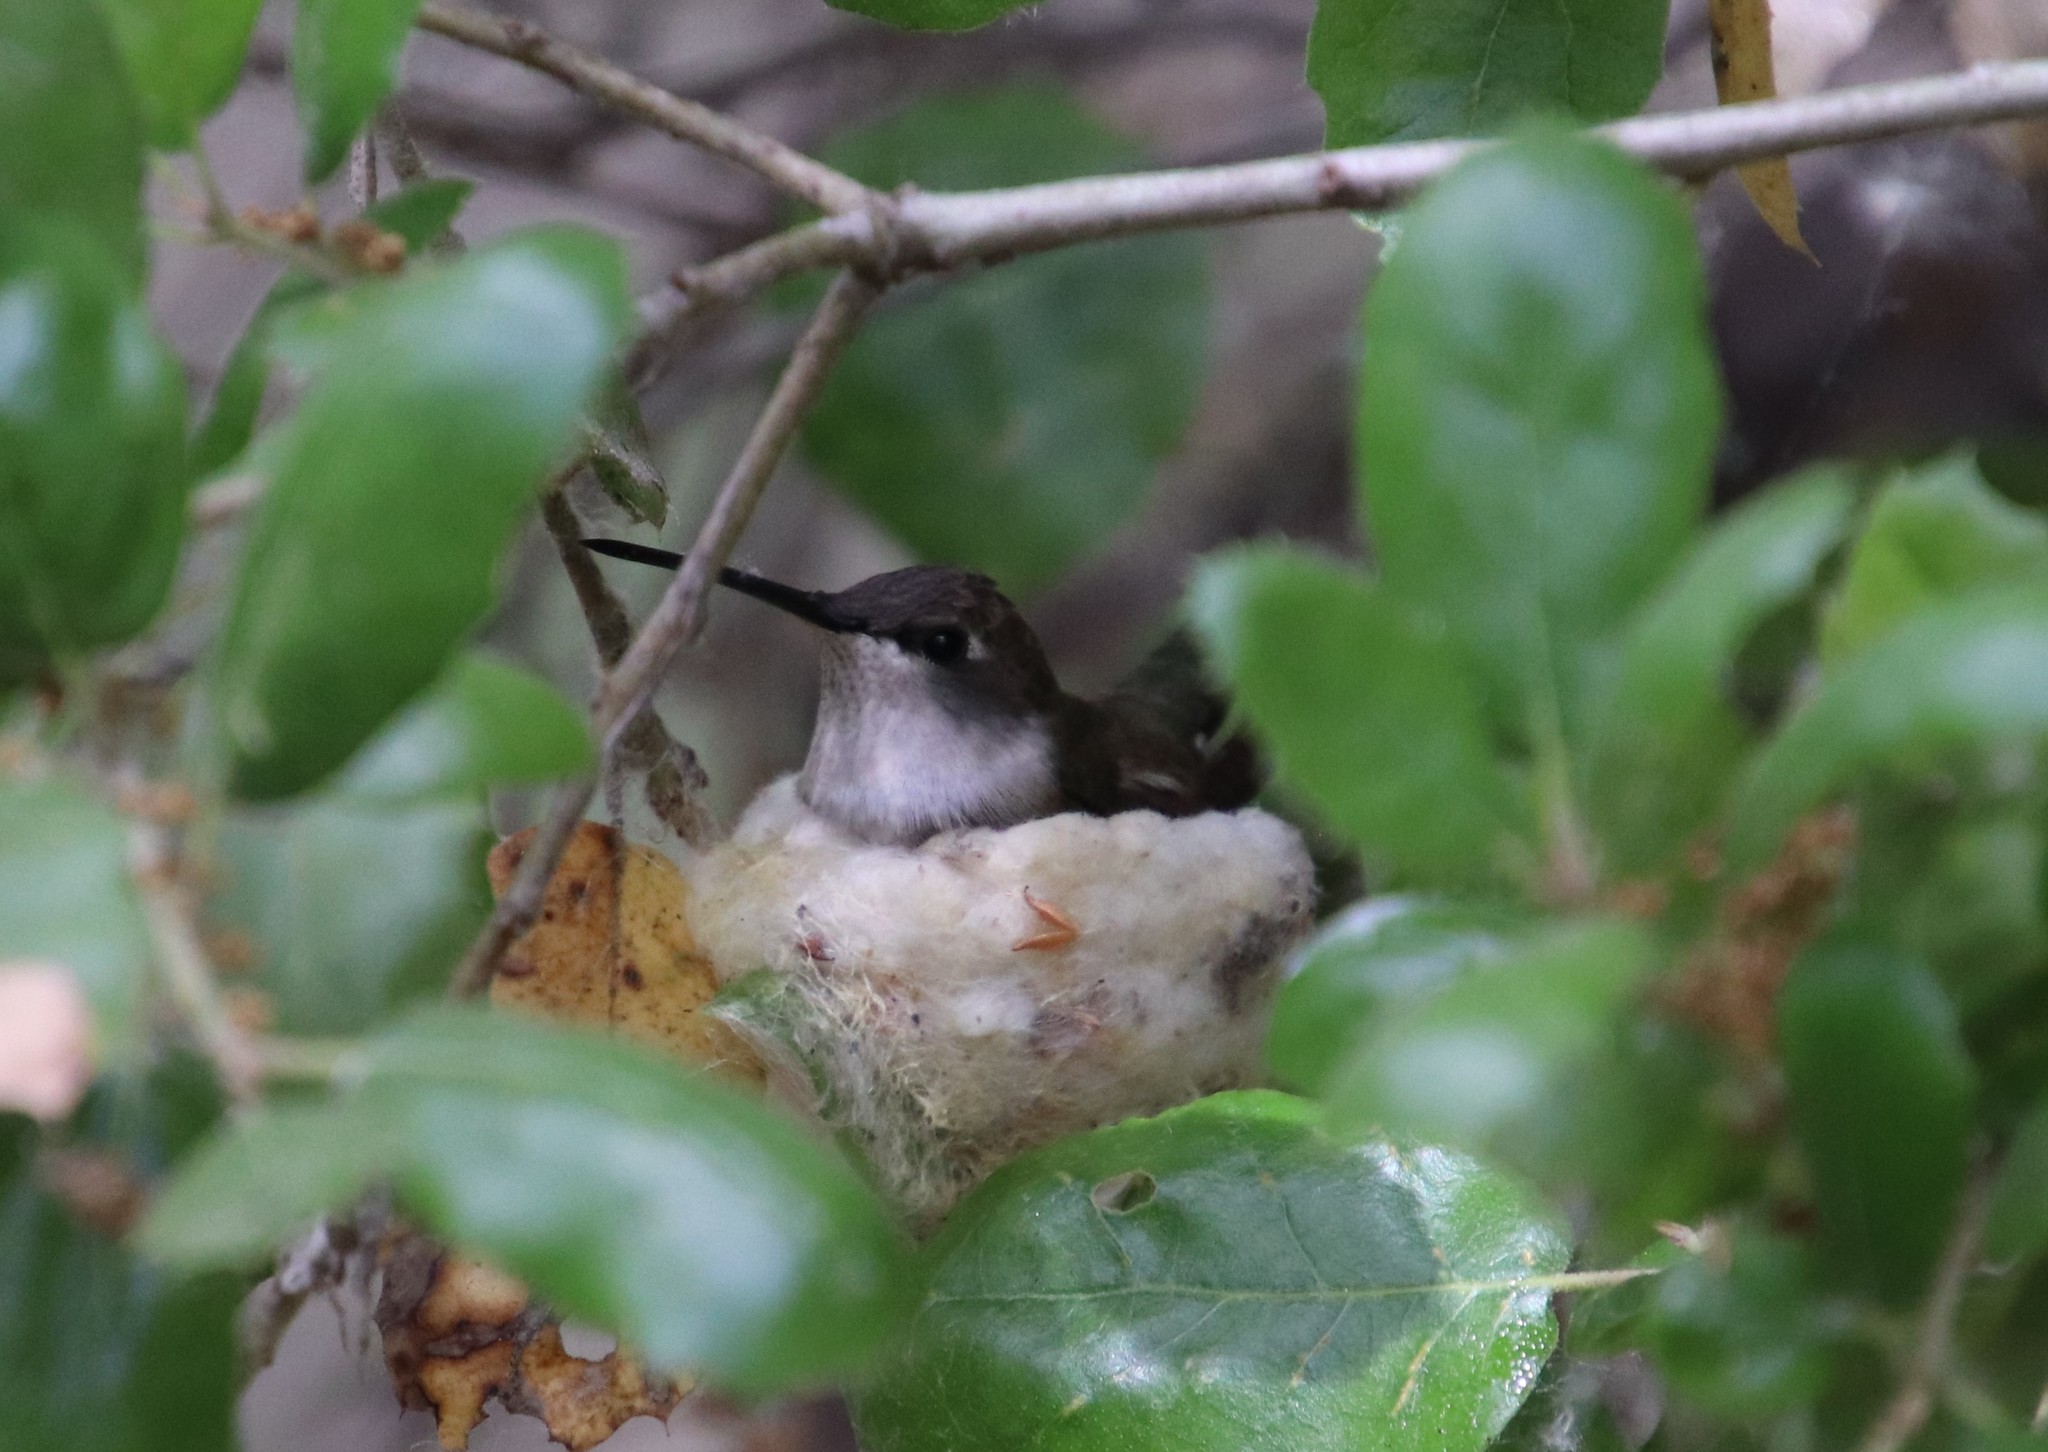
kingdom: Animalia
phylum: Chordata
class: Aves
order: Apodiformes
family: Trochilidae
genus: Archilochus
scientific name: Archilochus alexandri
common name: Black-chinned hummingbird
